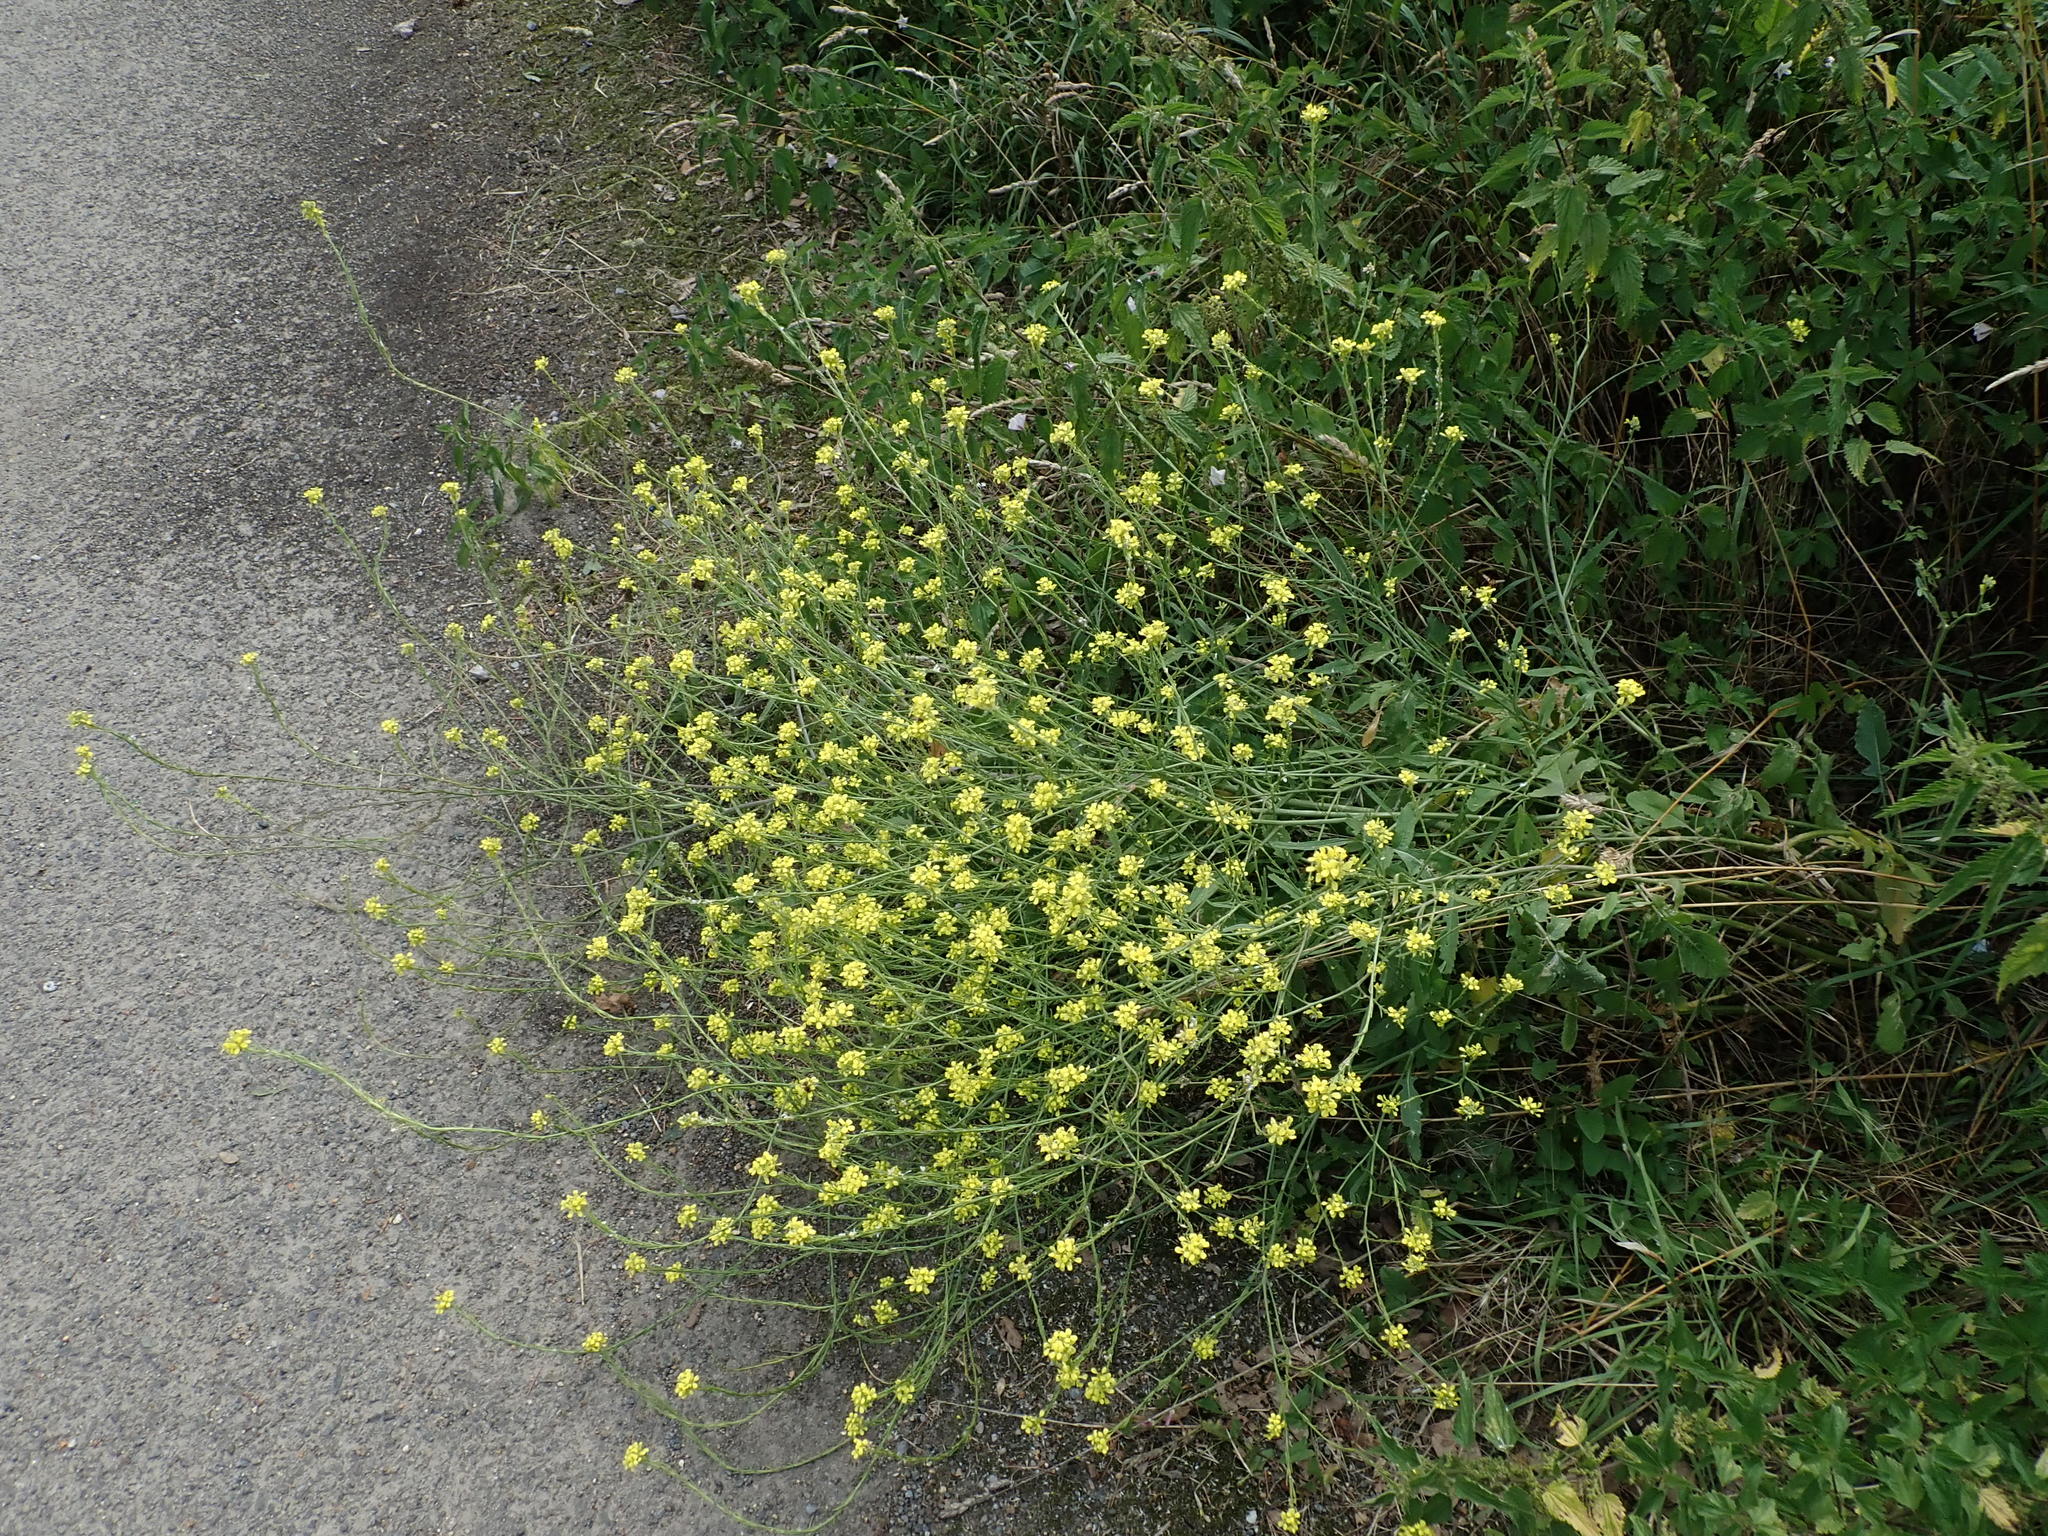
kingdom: Plantae
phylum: Tracheophyta
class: Magnoliopsida
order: Brassicales
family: Brassicaceae
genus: Hirschfeldia
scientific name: Hirschfeldia incana
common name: Hoary mustard
